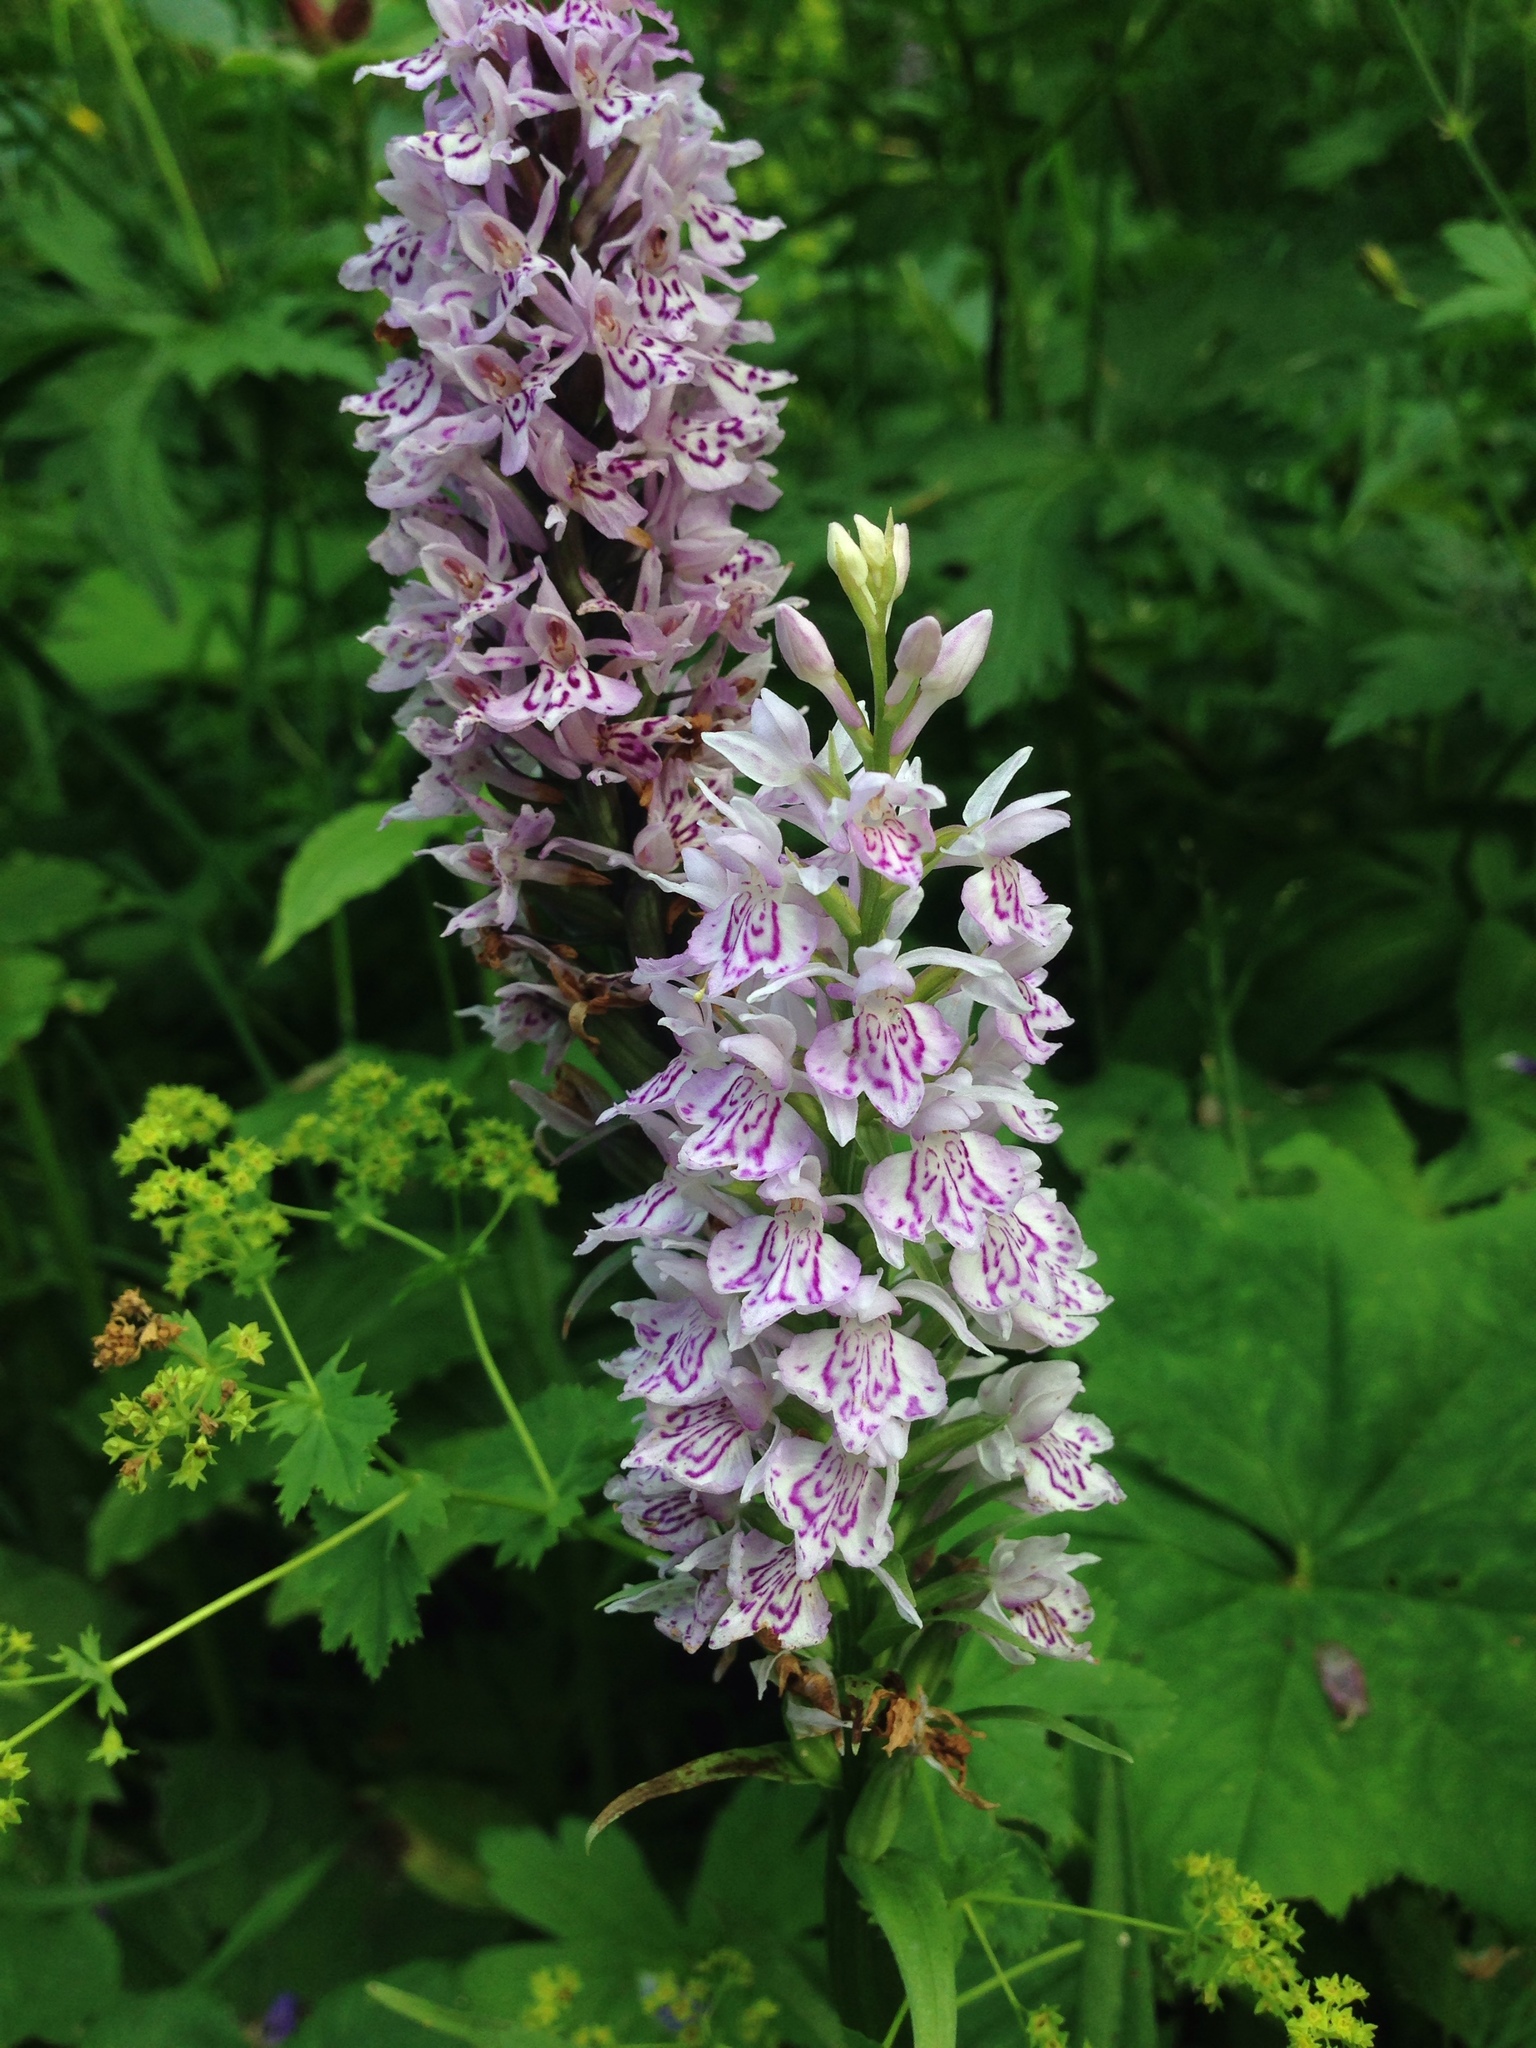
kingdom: Plantae
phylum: Tracheophyta
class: Liliopsida
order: Asparagales
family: Orchidaceae
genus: Dactylorhiza
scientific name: Dactylorhiza maculata
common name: Heath spotted-orchid
